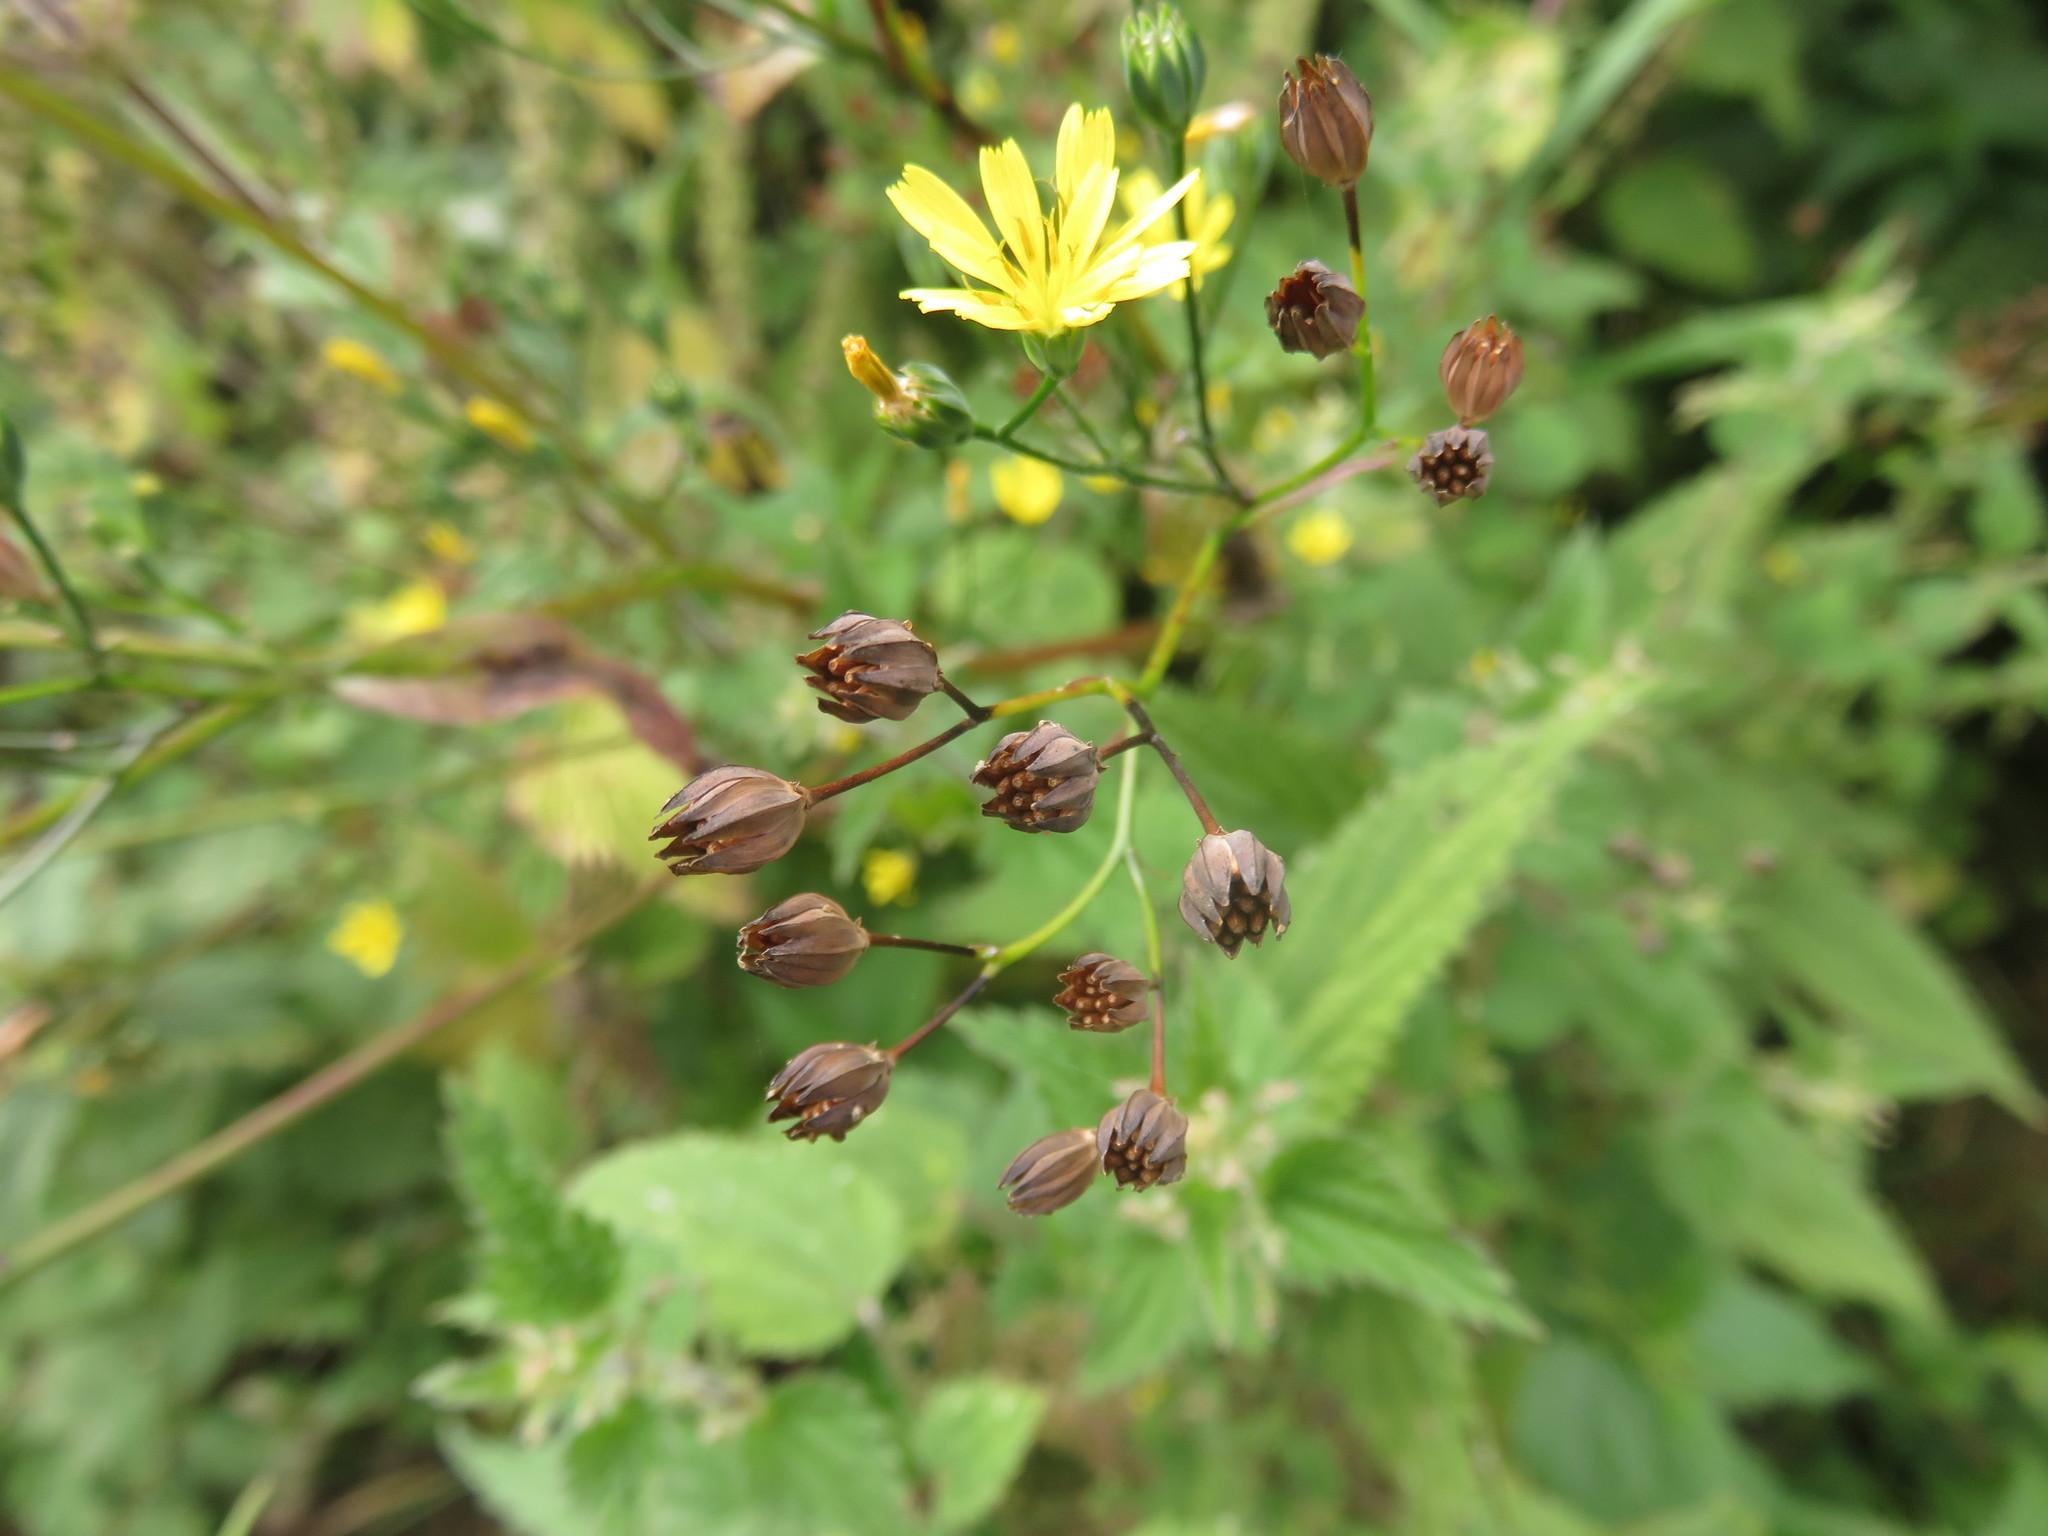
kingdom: Plantae
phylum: Tracheophyta
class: Magnoliopsida
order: Asterales
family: Asteraceae
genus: Lapsana
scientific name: Lapsana communis
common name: Nipplewort
